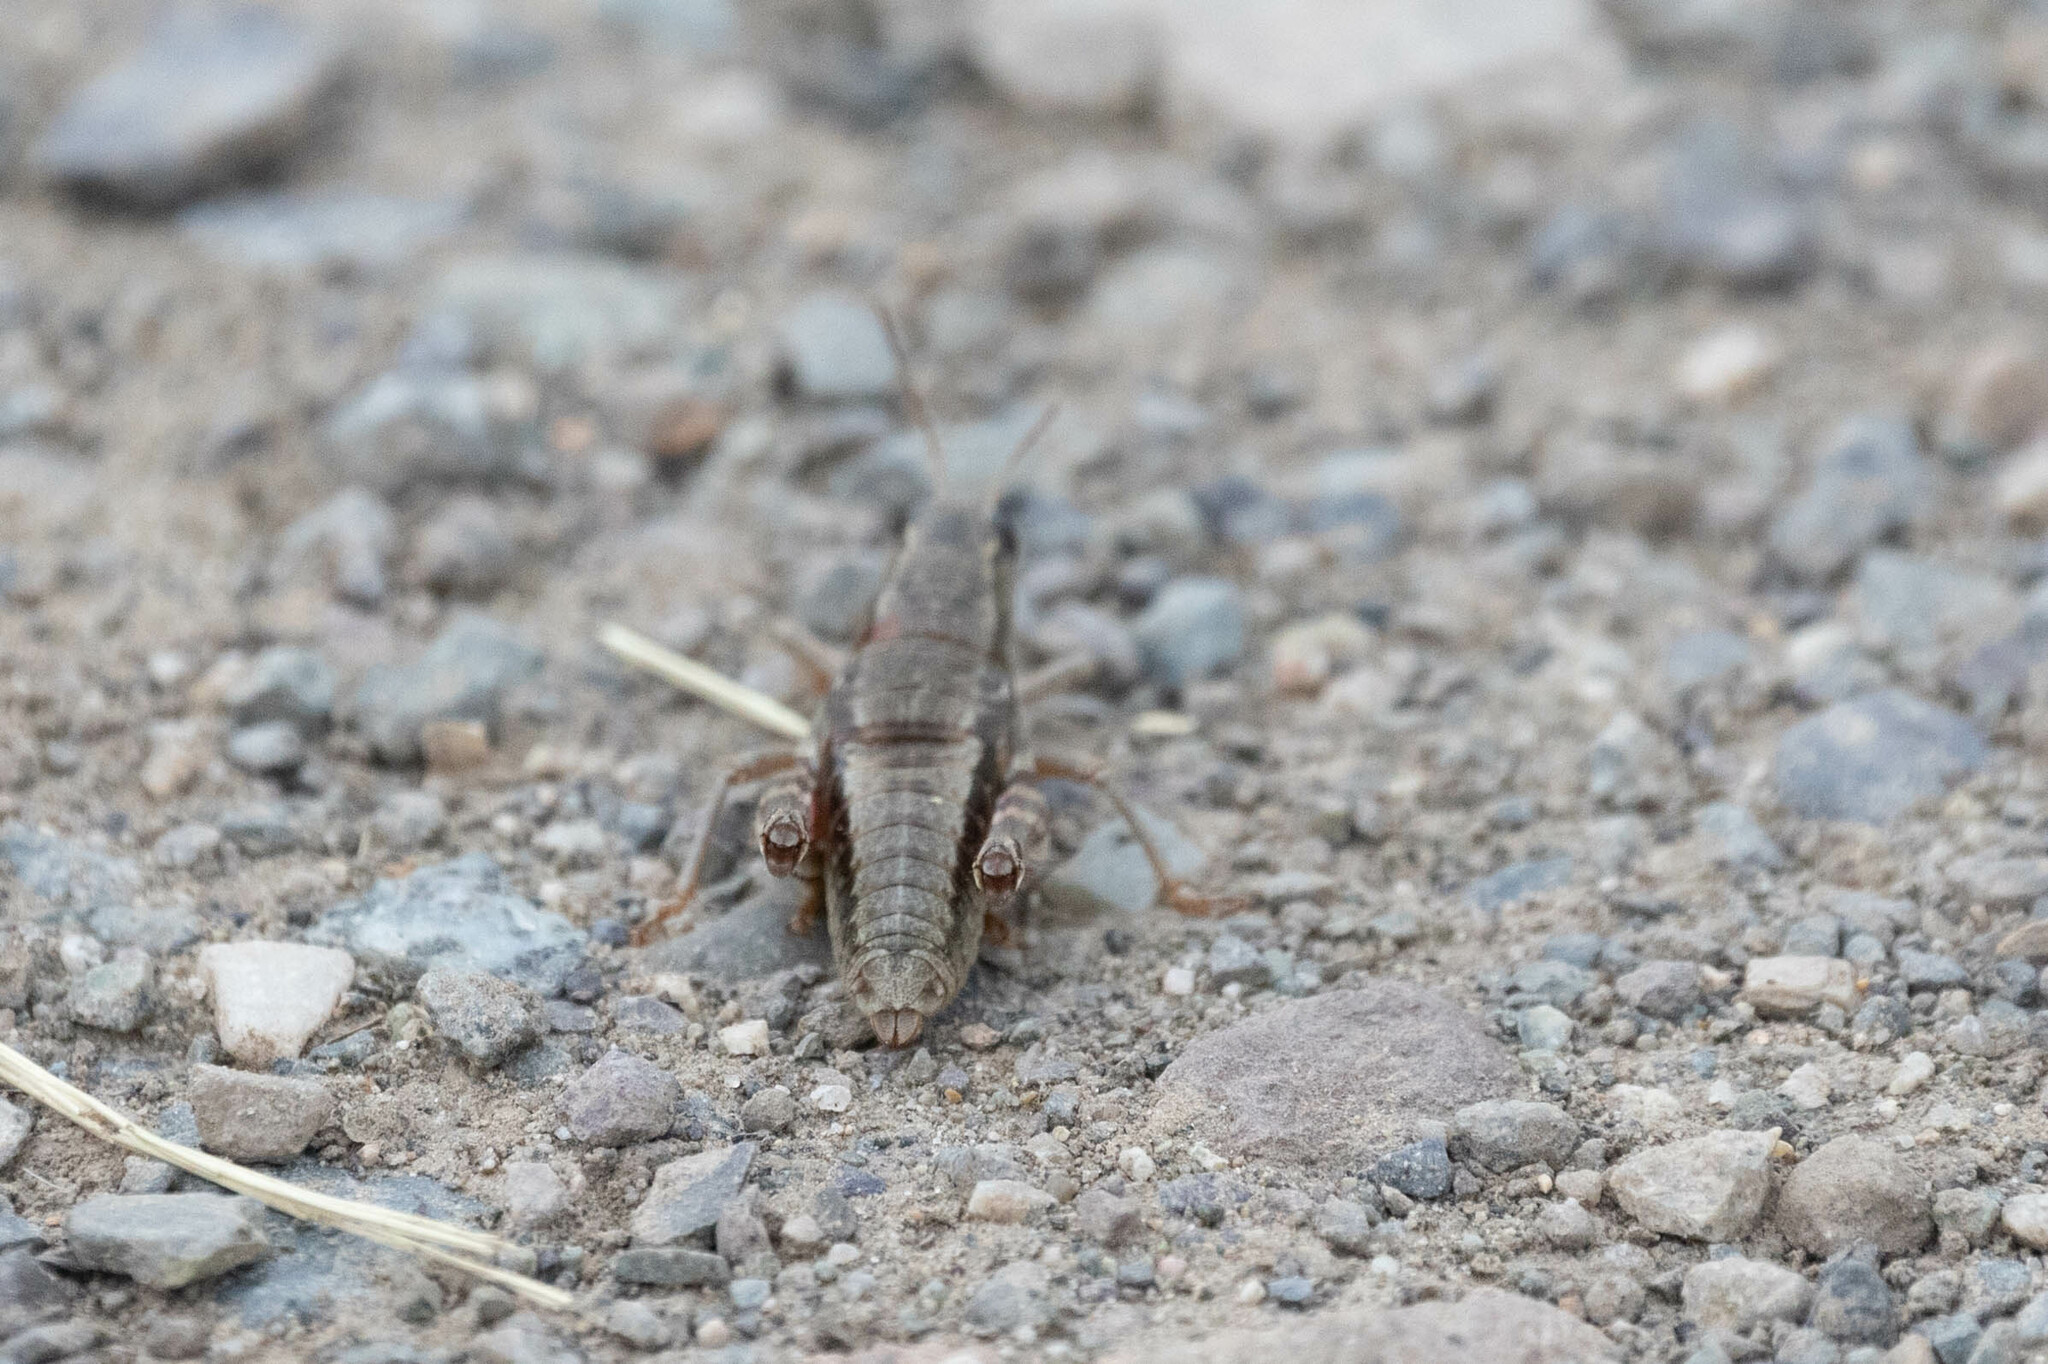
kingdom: Animalia
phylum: Arthropoda
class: Insecta
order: Orthoptera
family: Acrididae
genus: Buckellacris
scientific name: Buckellacris chilcotinae
